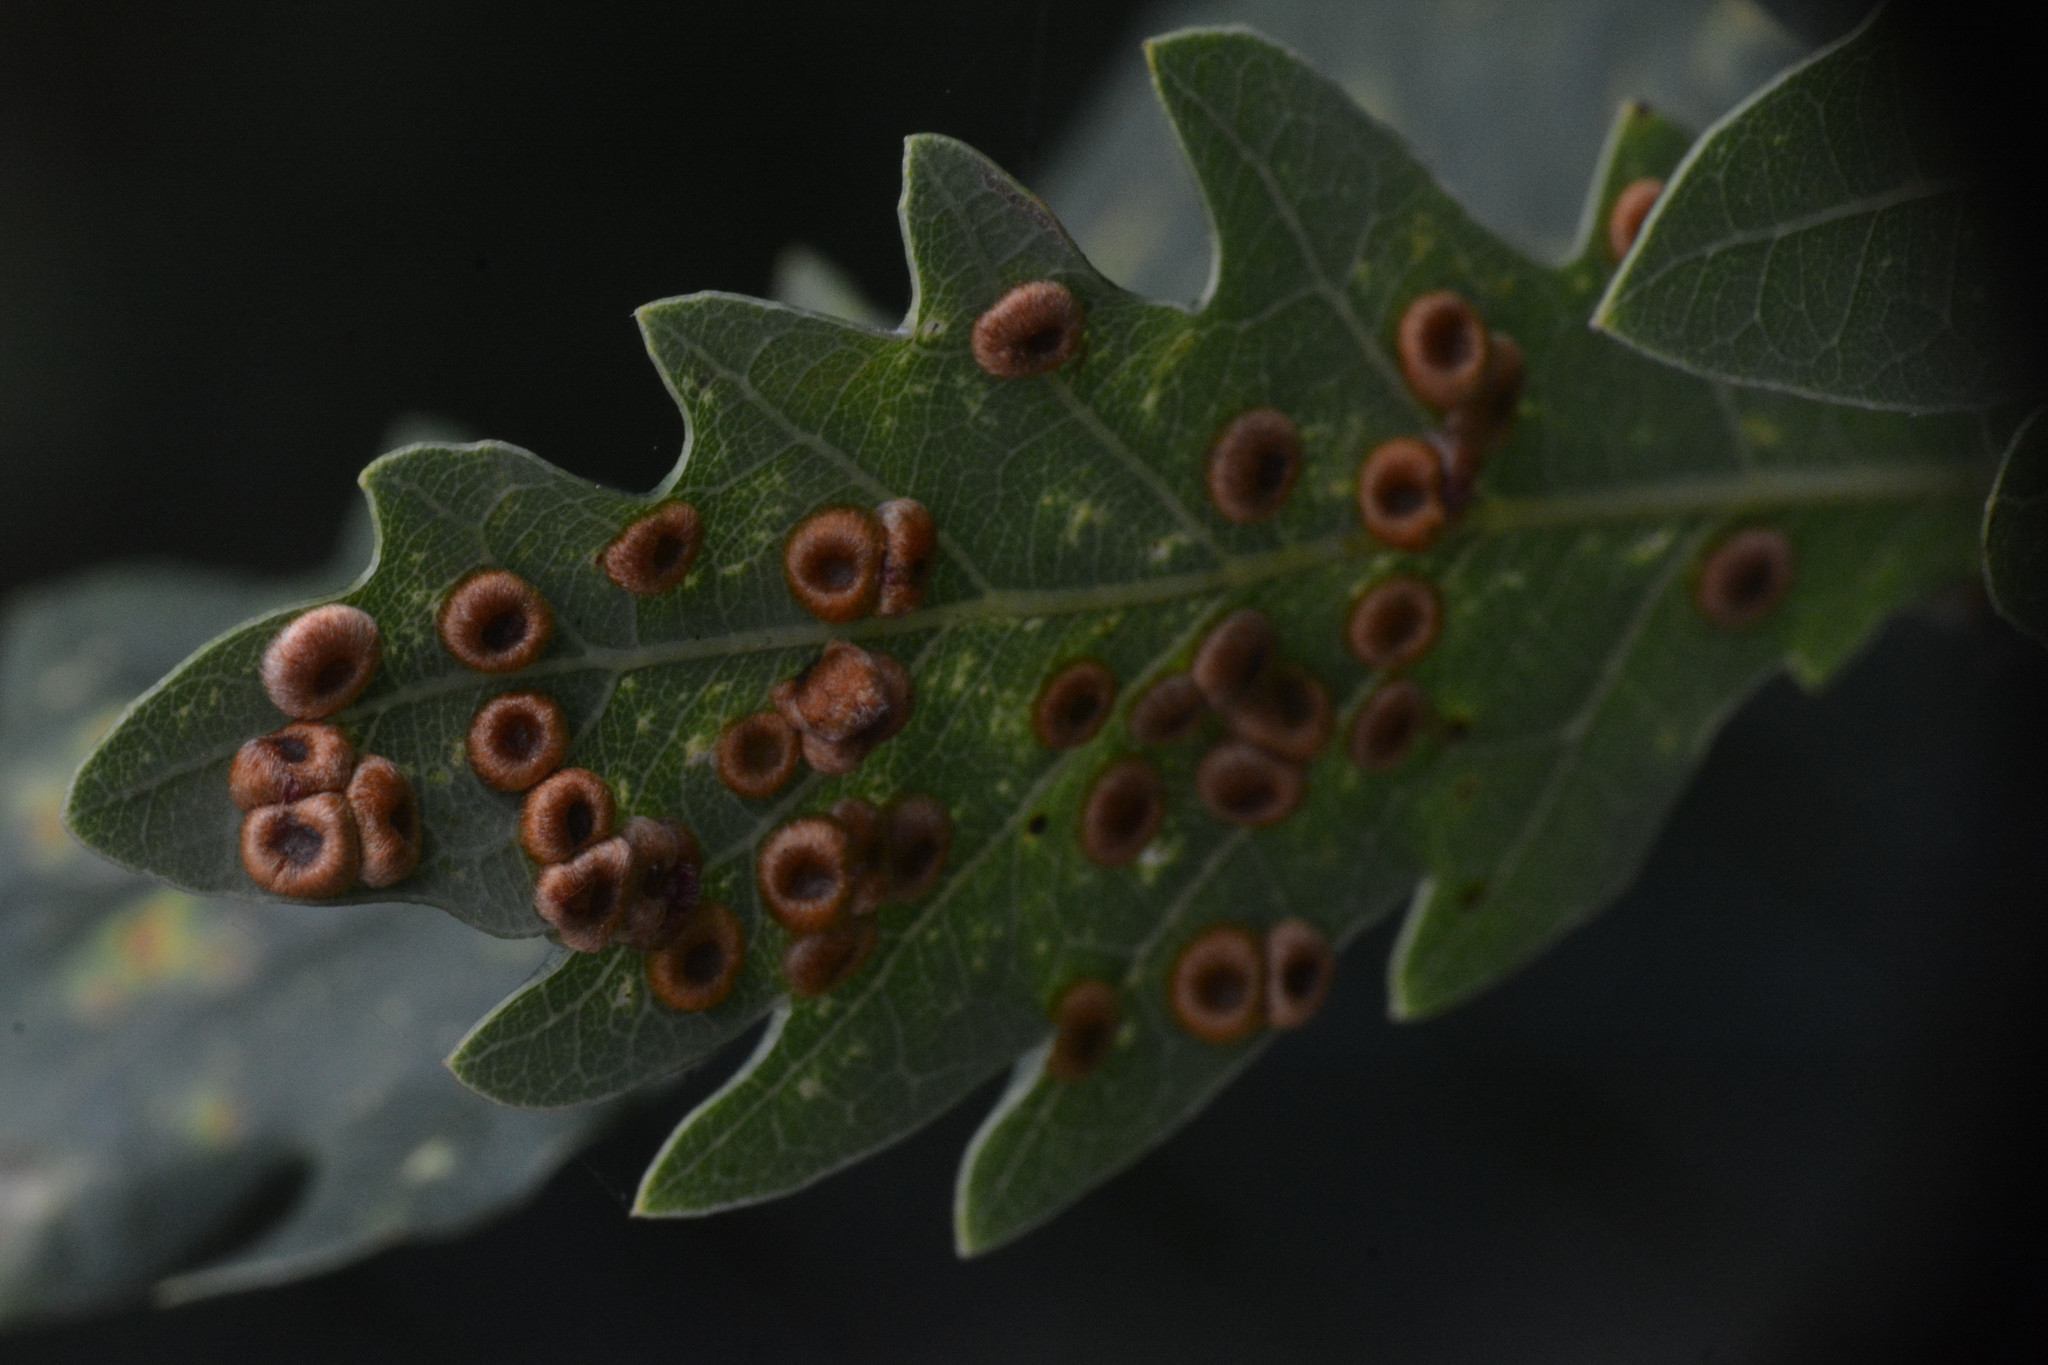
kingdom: Animalia
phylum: Arthropoda
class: Insecta
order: Hymenoptera
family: Cynipidae
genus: Neuroterus
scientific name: Neuroterus numismalis
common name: Silk-button spangle gall
